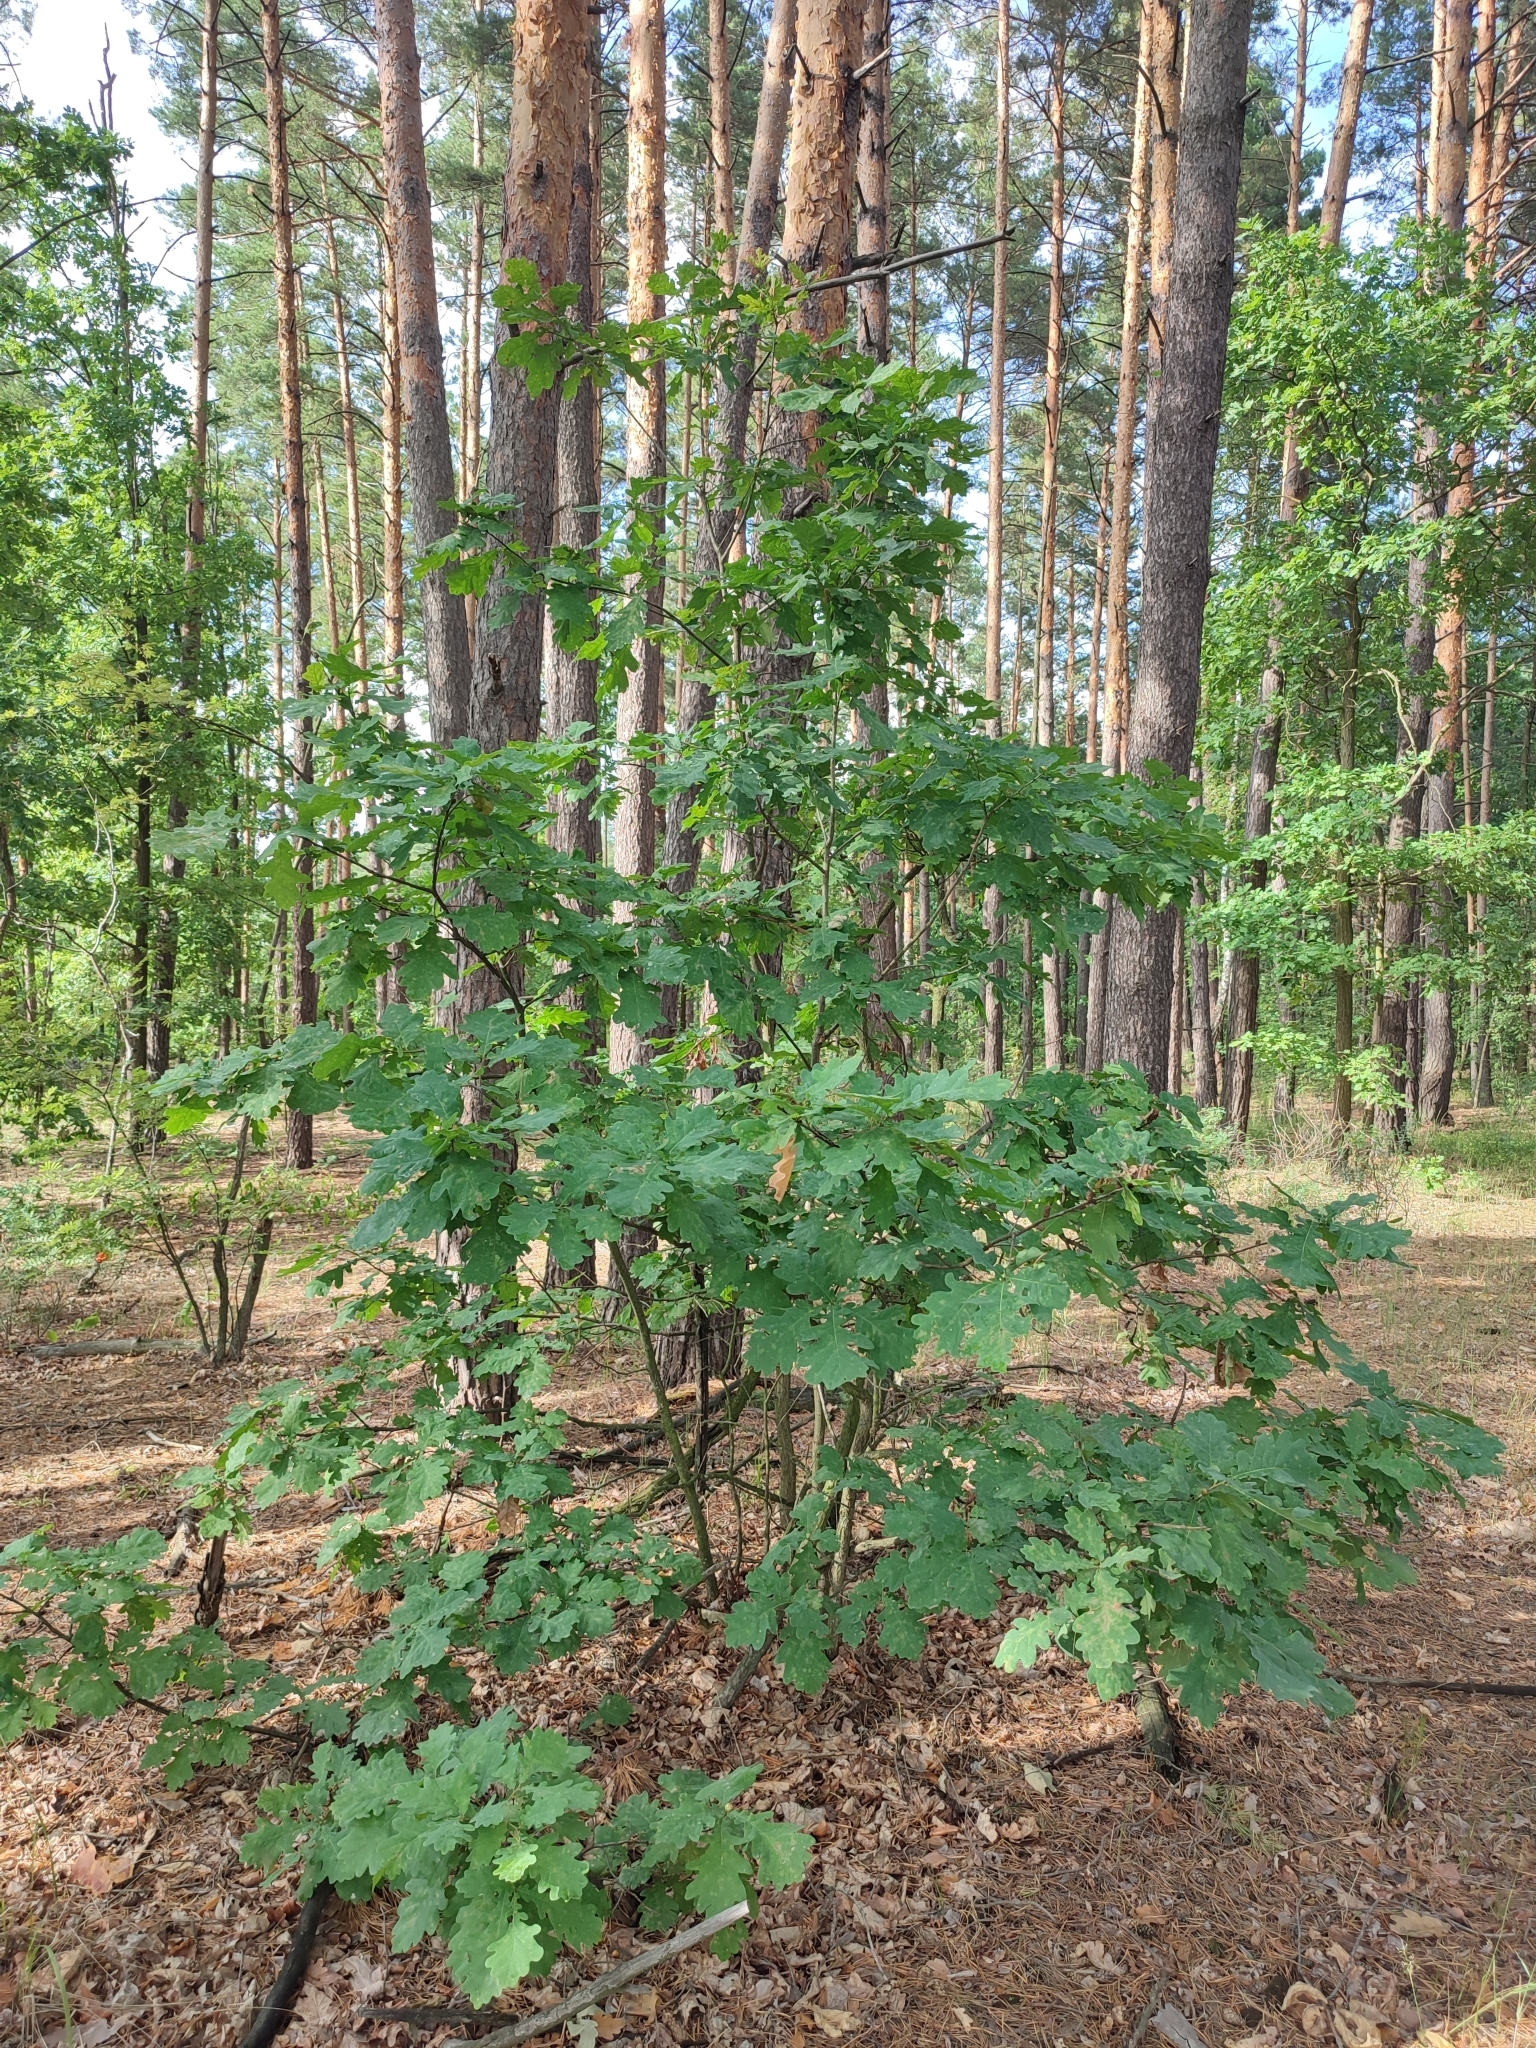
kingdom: Plantae
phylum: Tracheophyta
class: Magnoliopsida
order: Fagales
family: Fagaceae
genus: Quercus
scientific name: Quercus robur
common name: Pedunculate oak
